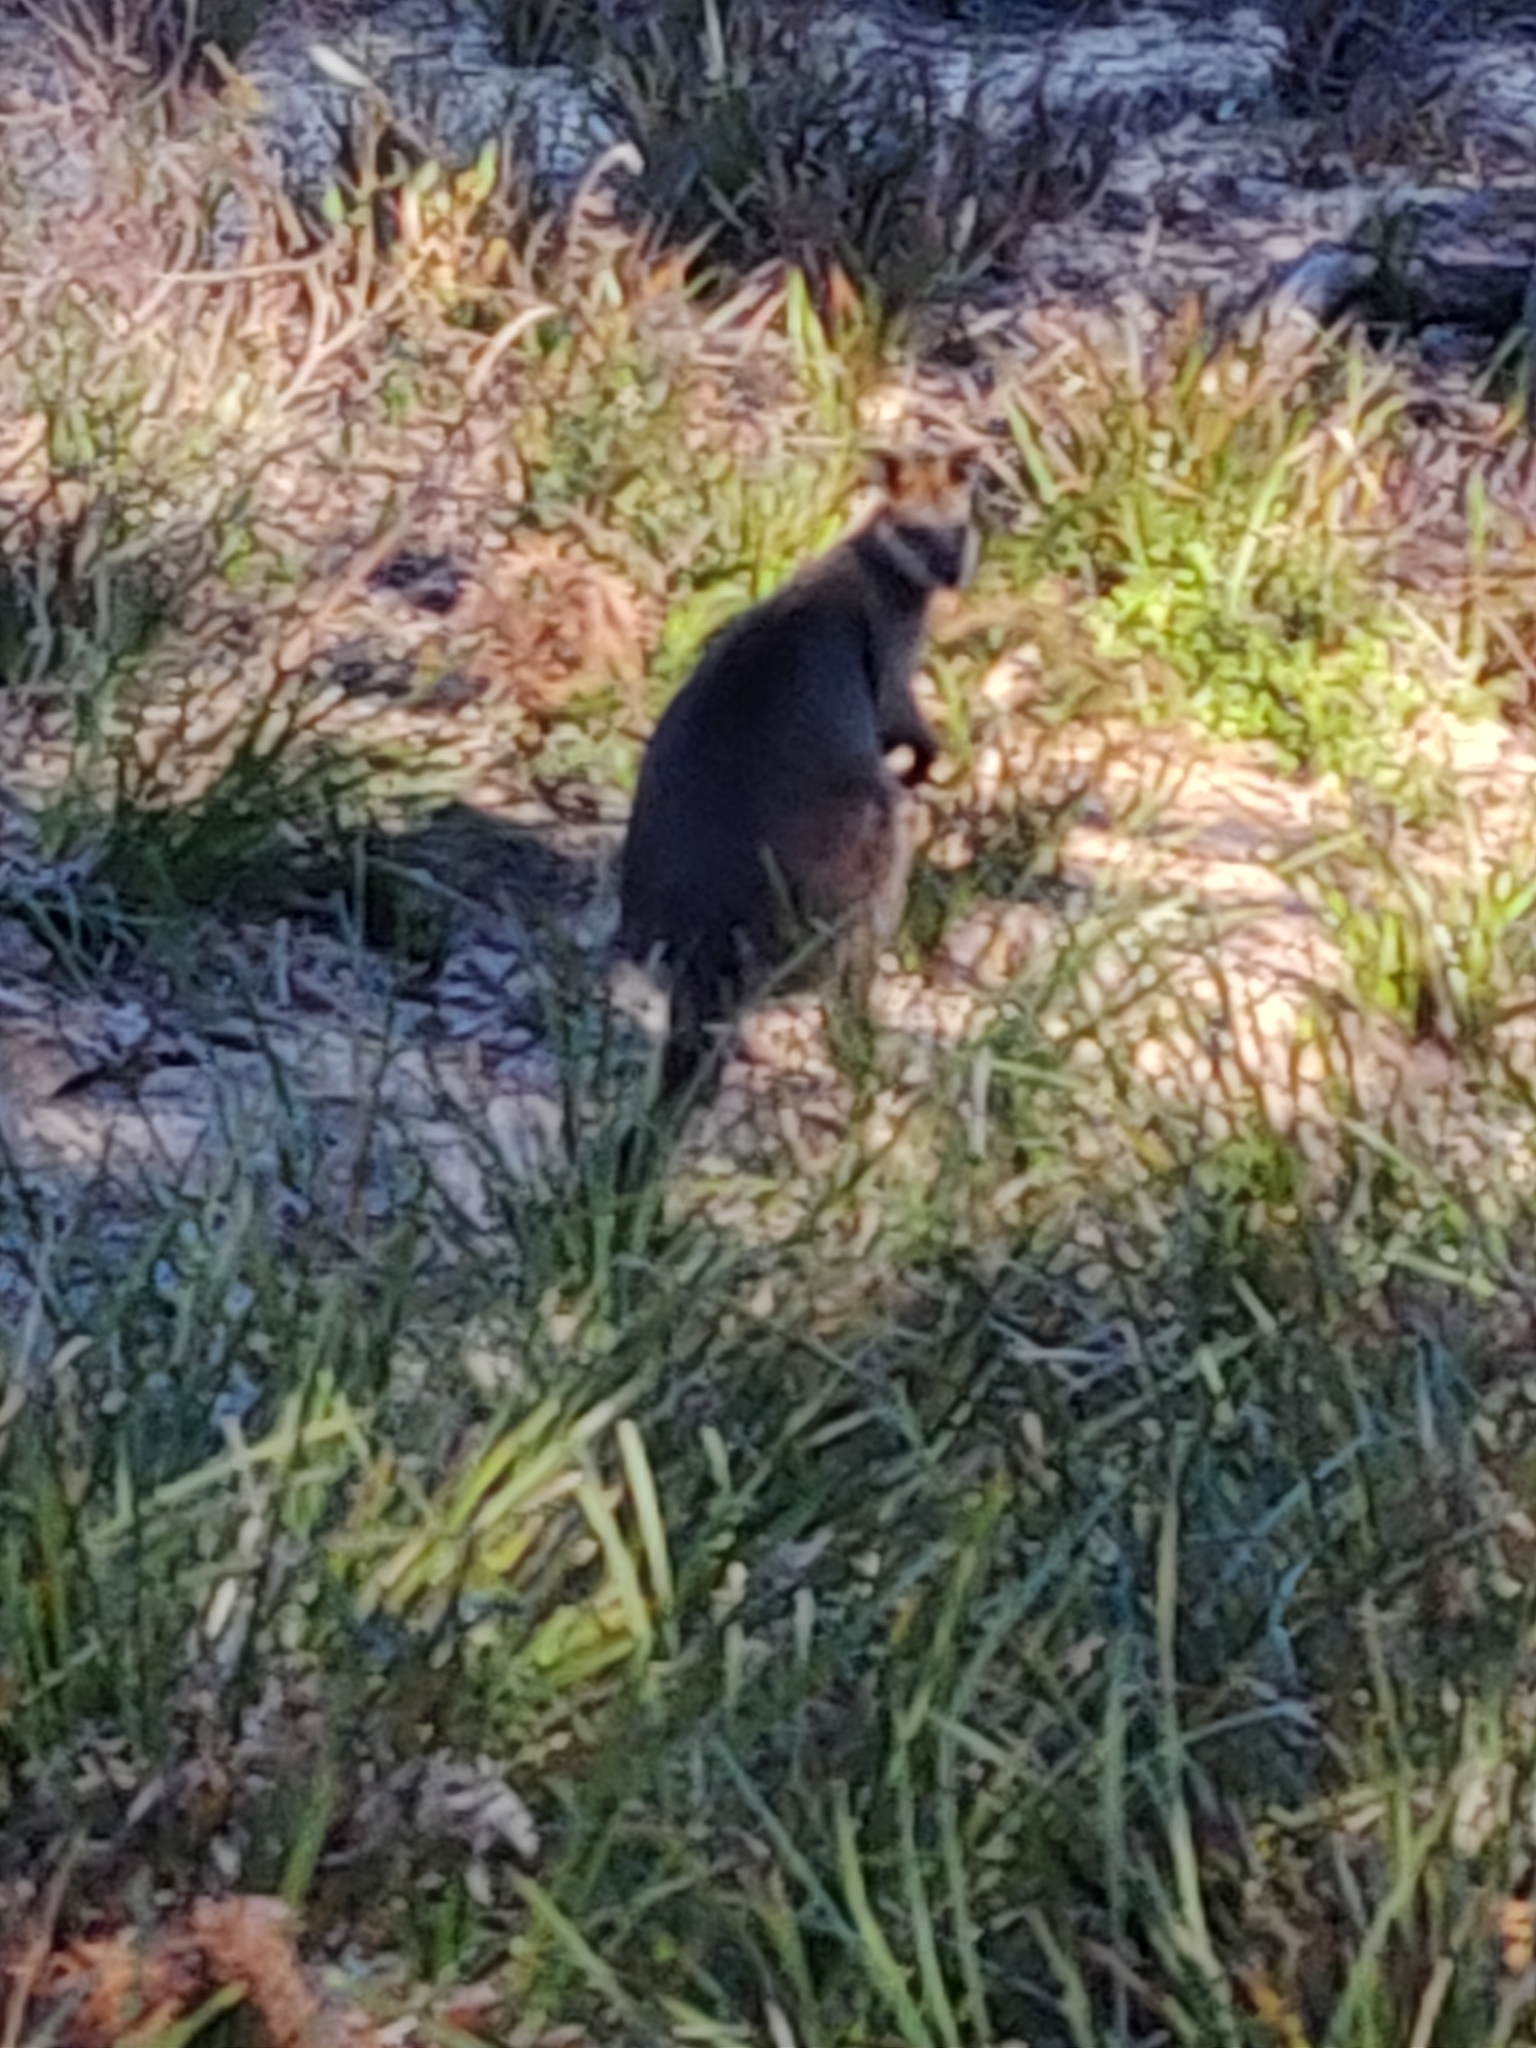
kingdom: Animalia
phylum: Chordata
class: Mammalia
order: Diprotodontia
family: Macropodidae
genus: Wallabia
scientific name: Wallabia bicolor
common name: Swamp wallaby
